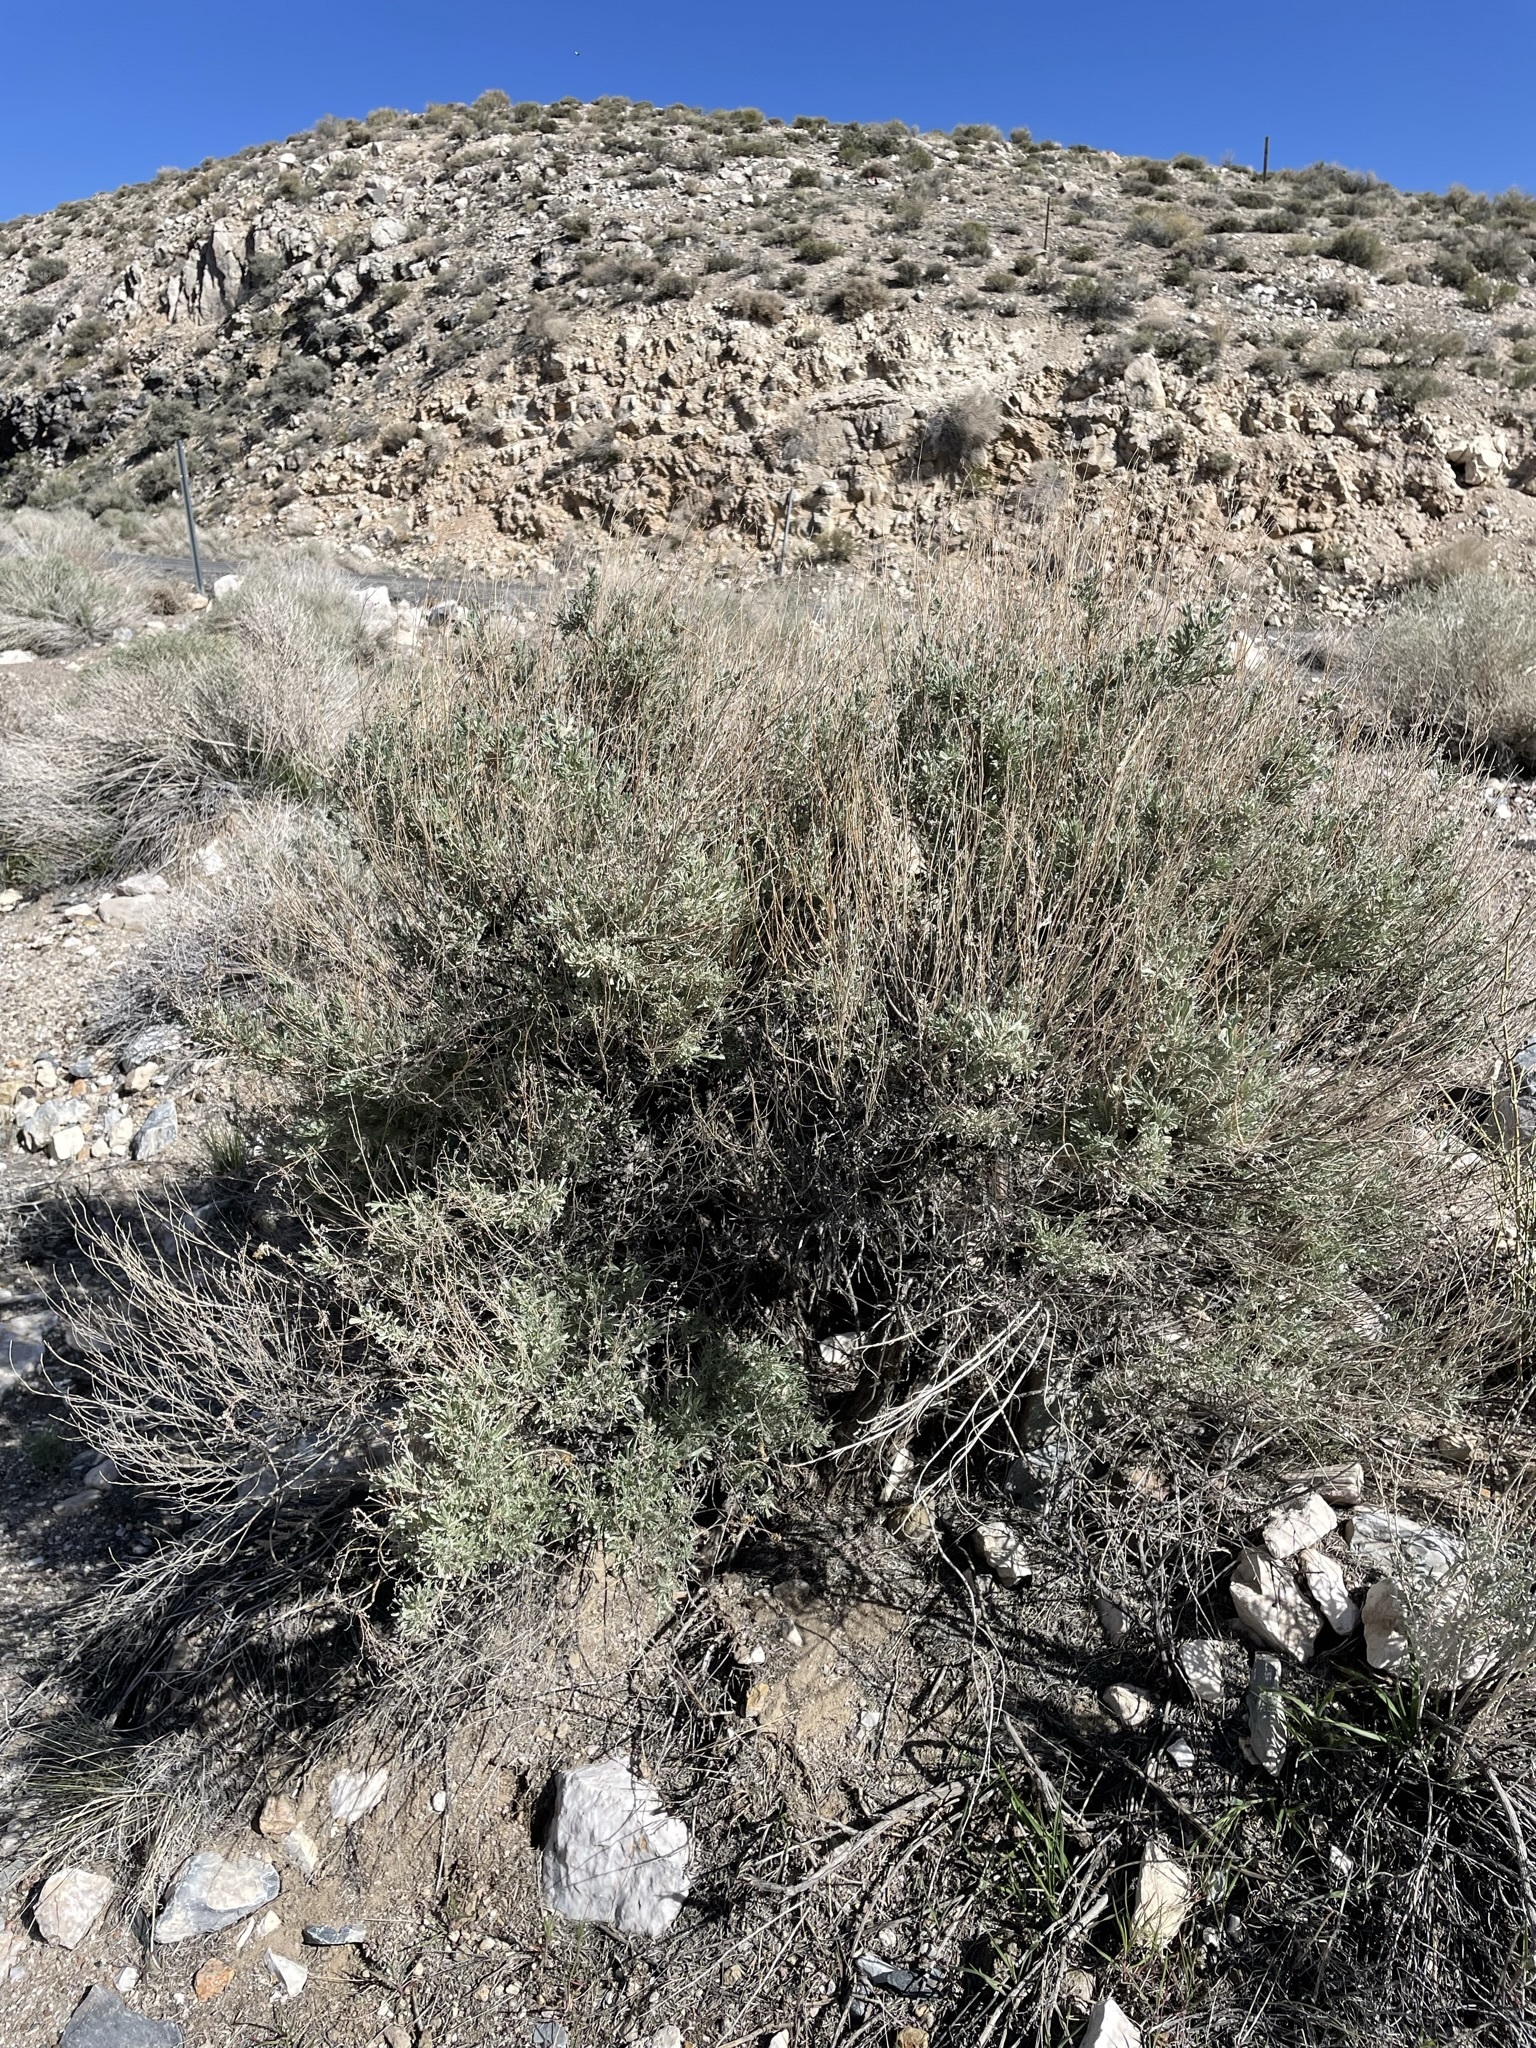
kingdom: Plantae
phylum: Tracheophyta
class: Magnoliopsida
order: Asterales
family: Asteraceae
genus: Artemisia
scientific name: Artemisia tridentata
